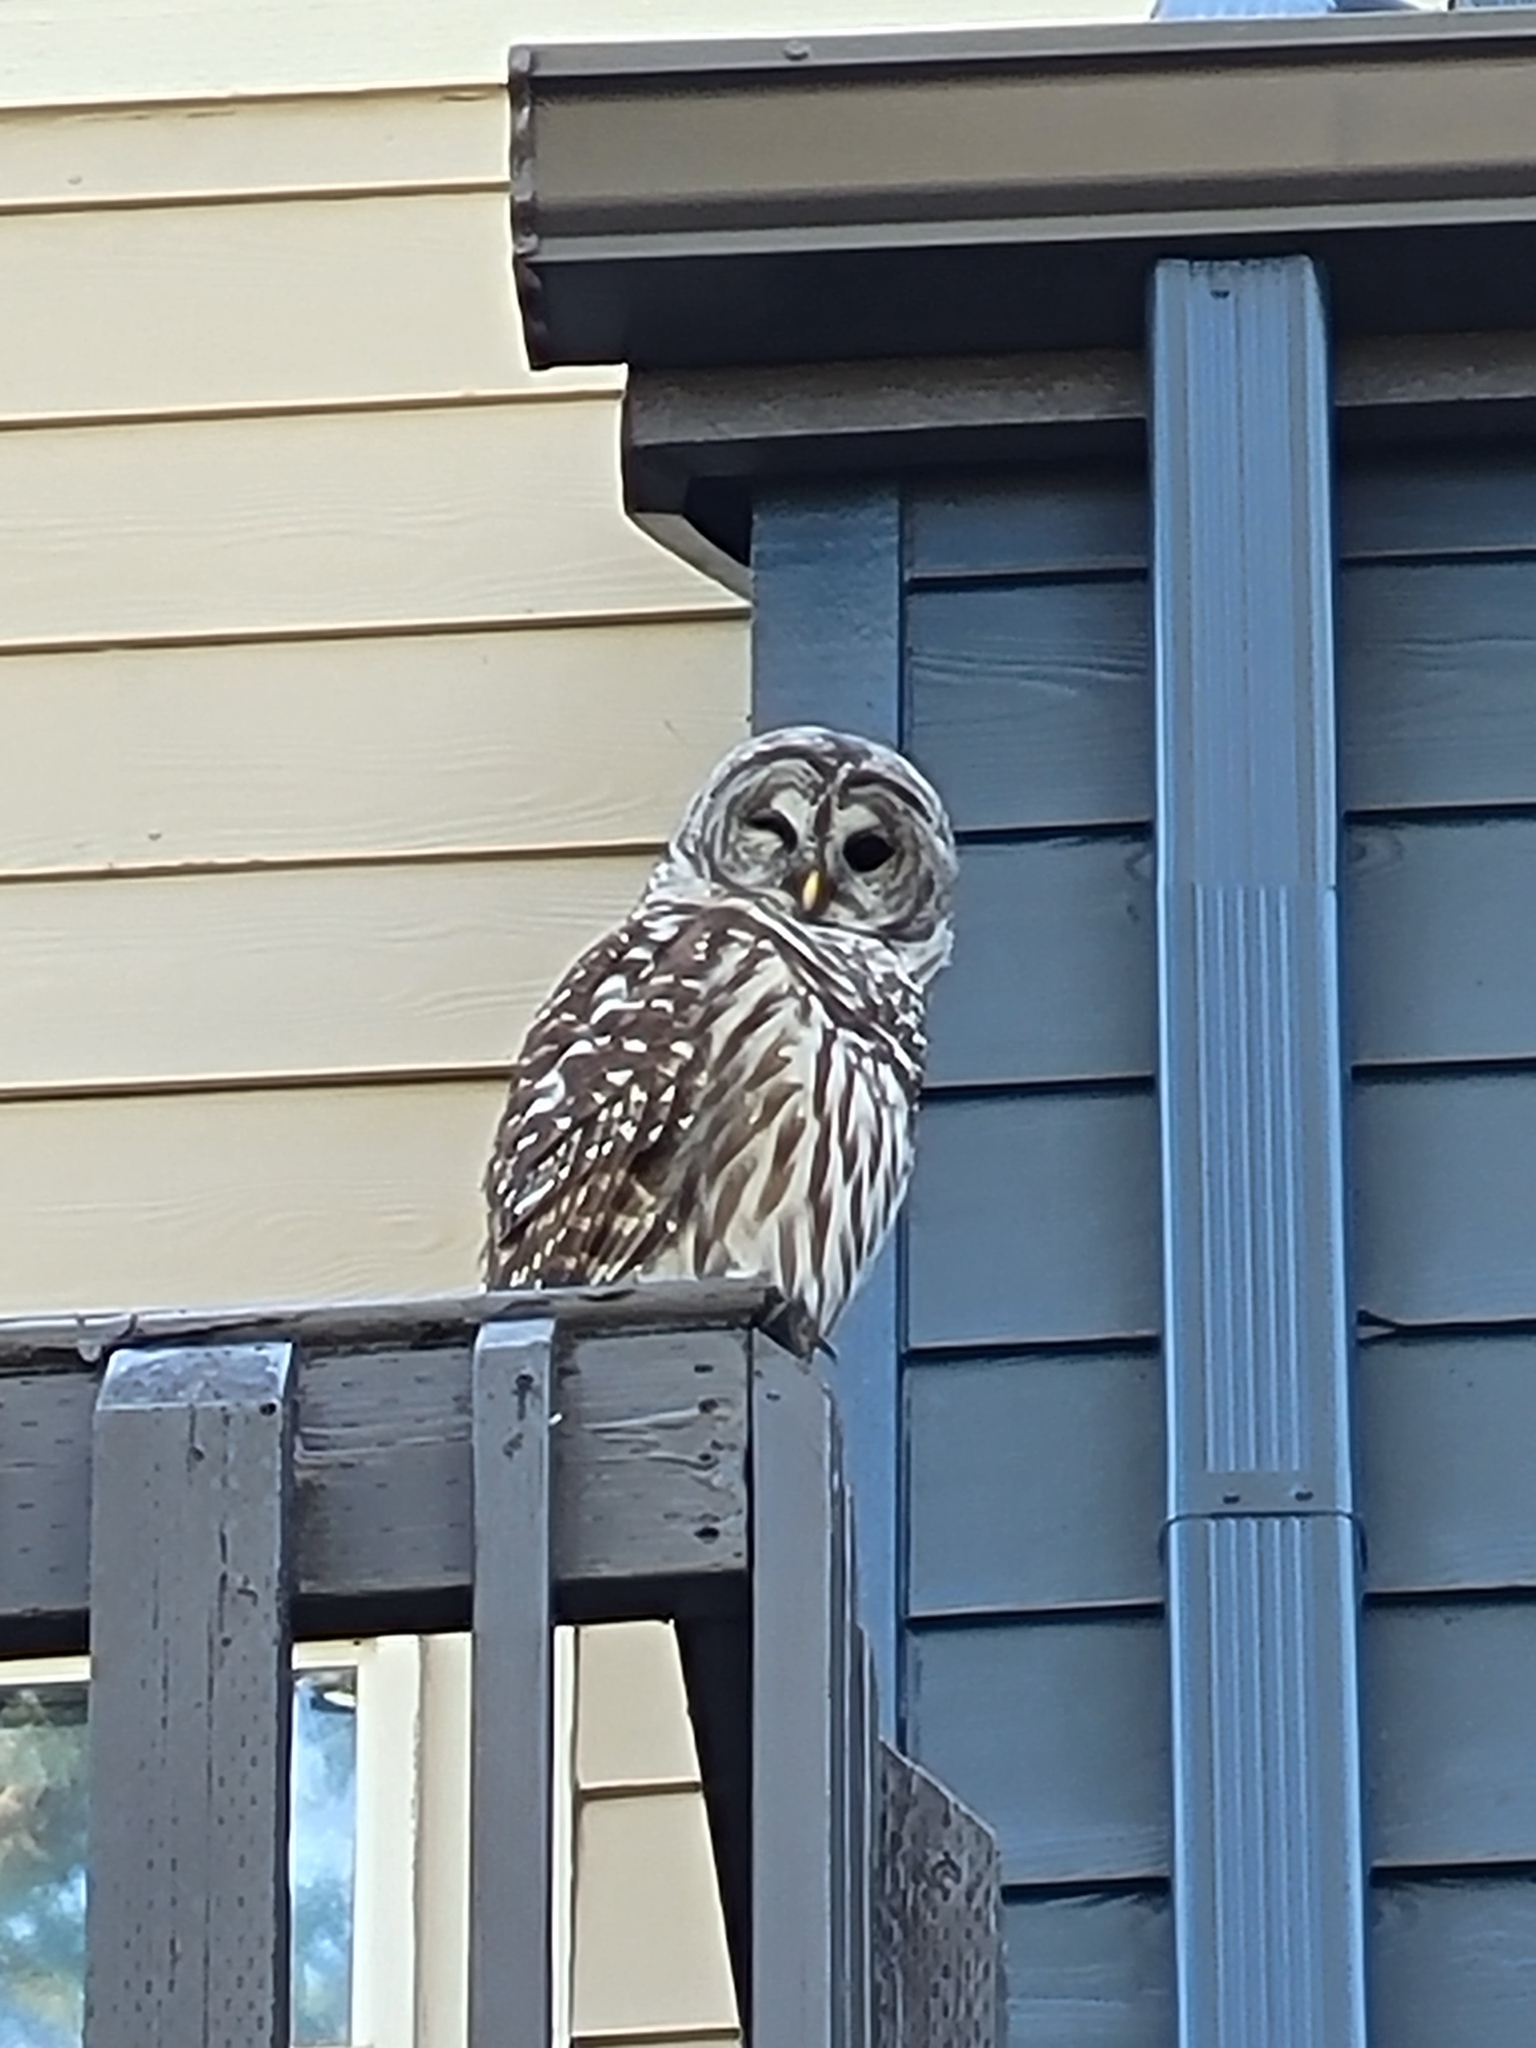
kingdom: Animalia
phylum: Chordata
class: Aves
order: Strigiformes
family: Strigidae
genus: Strix
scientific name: Strix varia
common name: Barred owl
